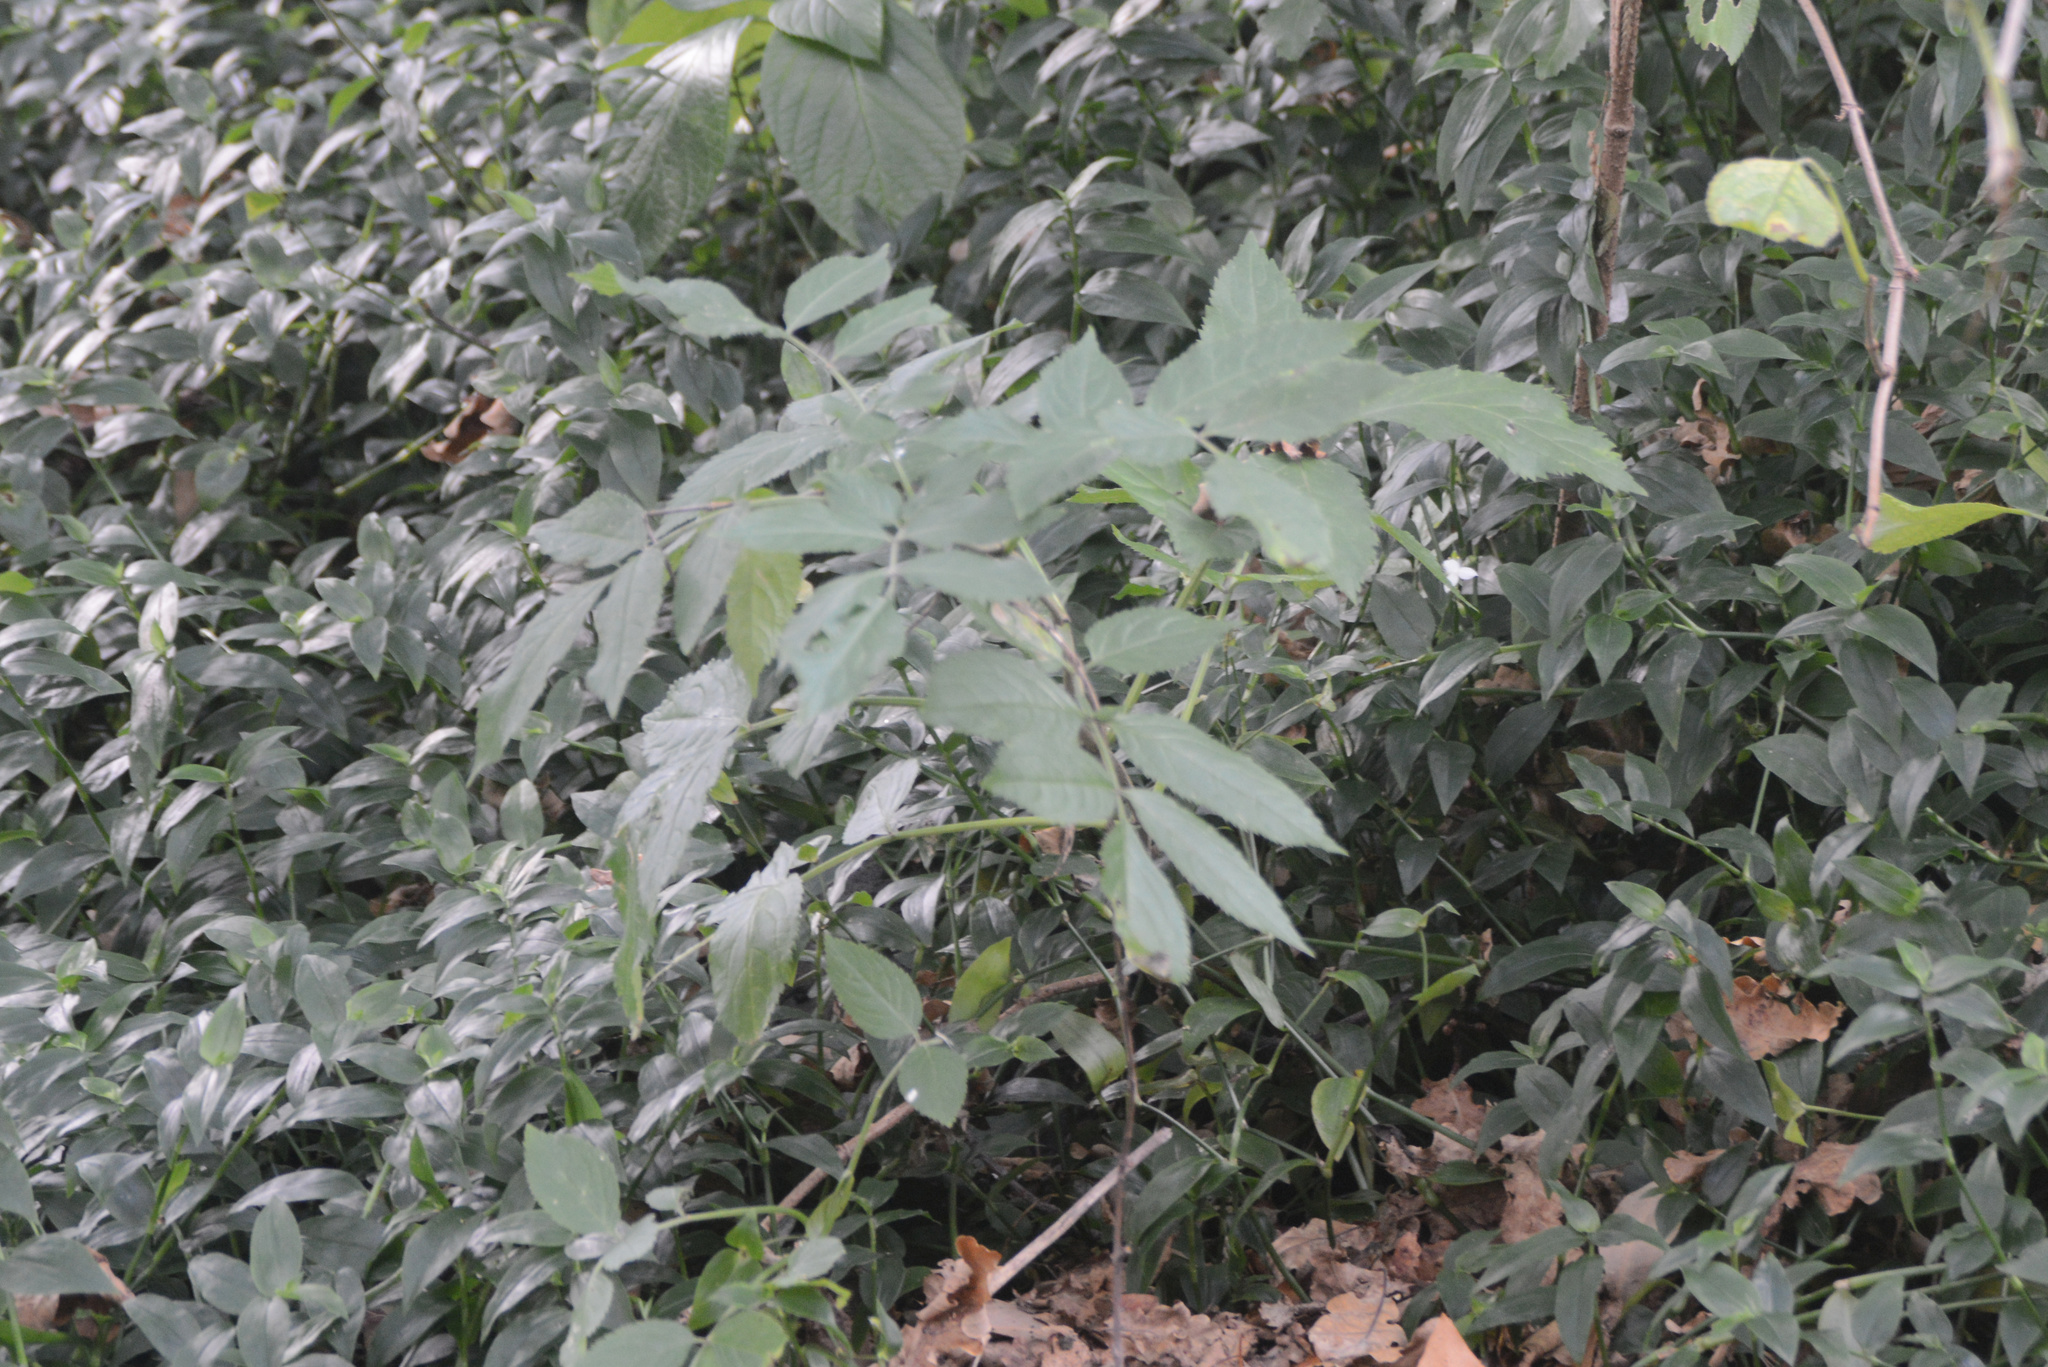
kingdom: Plantae
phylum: Tracheophyta
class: Magnoliopsida
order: Dipsacales
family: Viburnaceae
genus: Sambucus
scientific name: Sambucus nigra
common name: Elder
